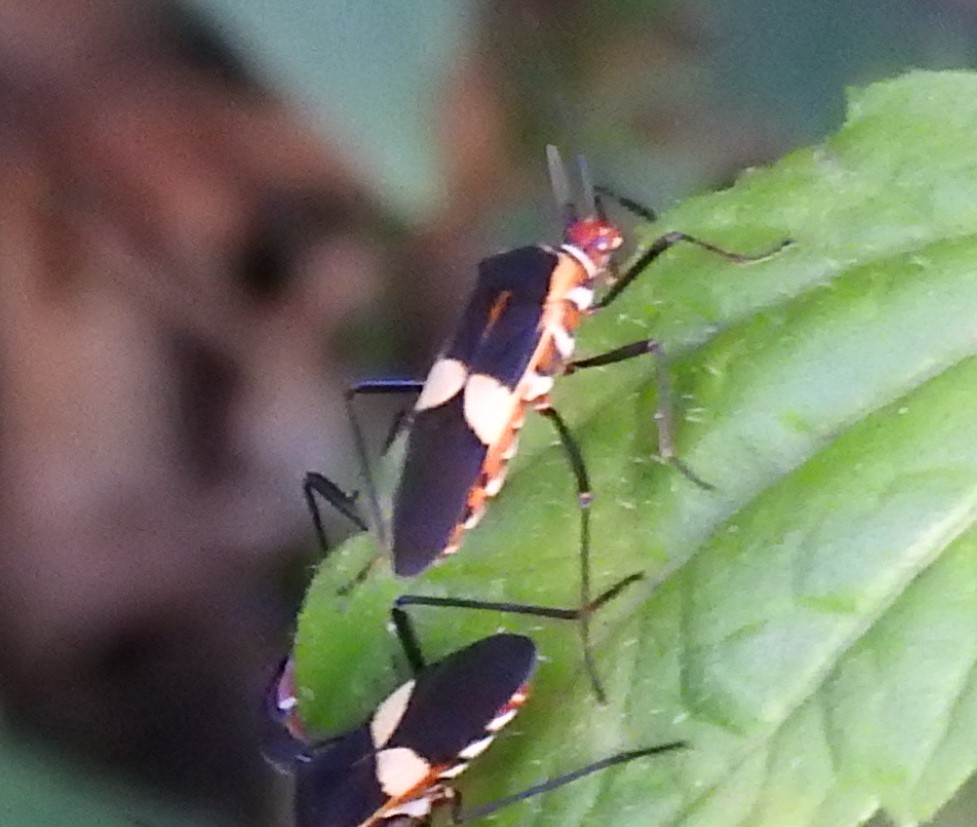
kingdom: Animalia
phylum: Arthropoda
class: Insecta
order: Hemiptera
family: Coreidae
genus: Hypselonotus
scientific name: Hypselonotus interruptus
